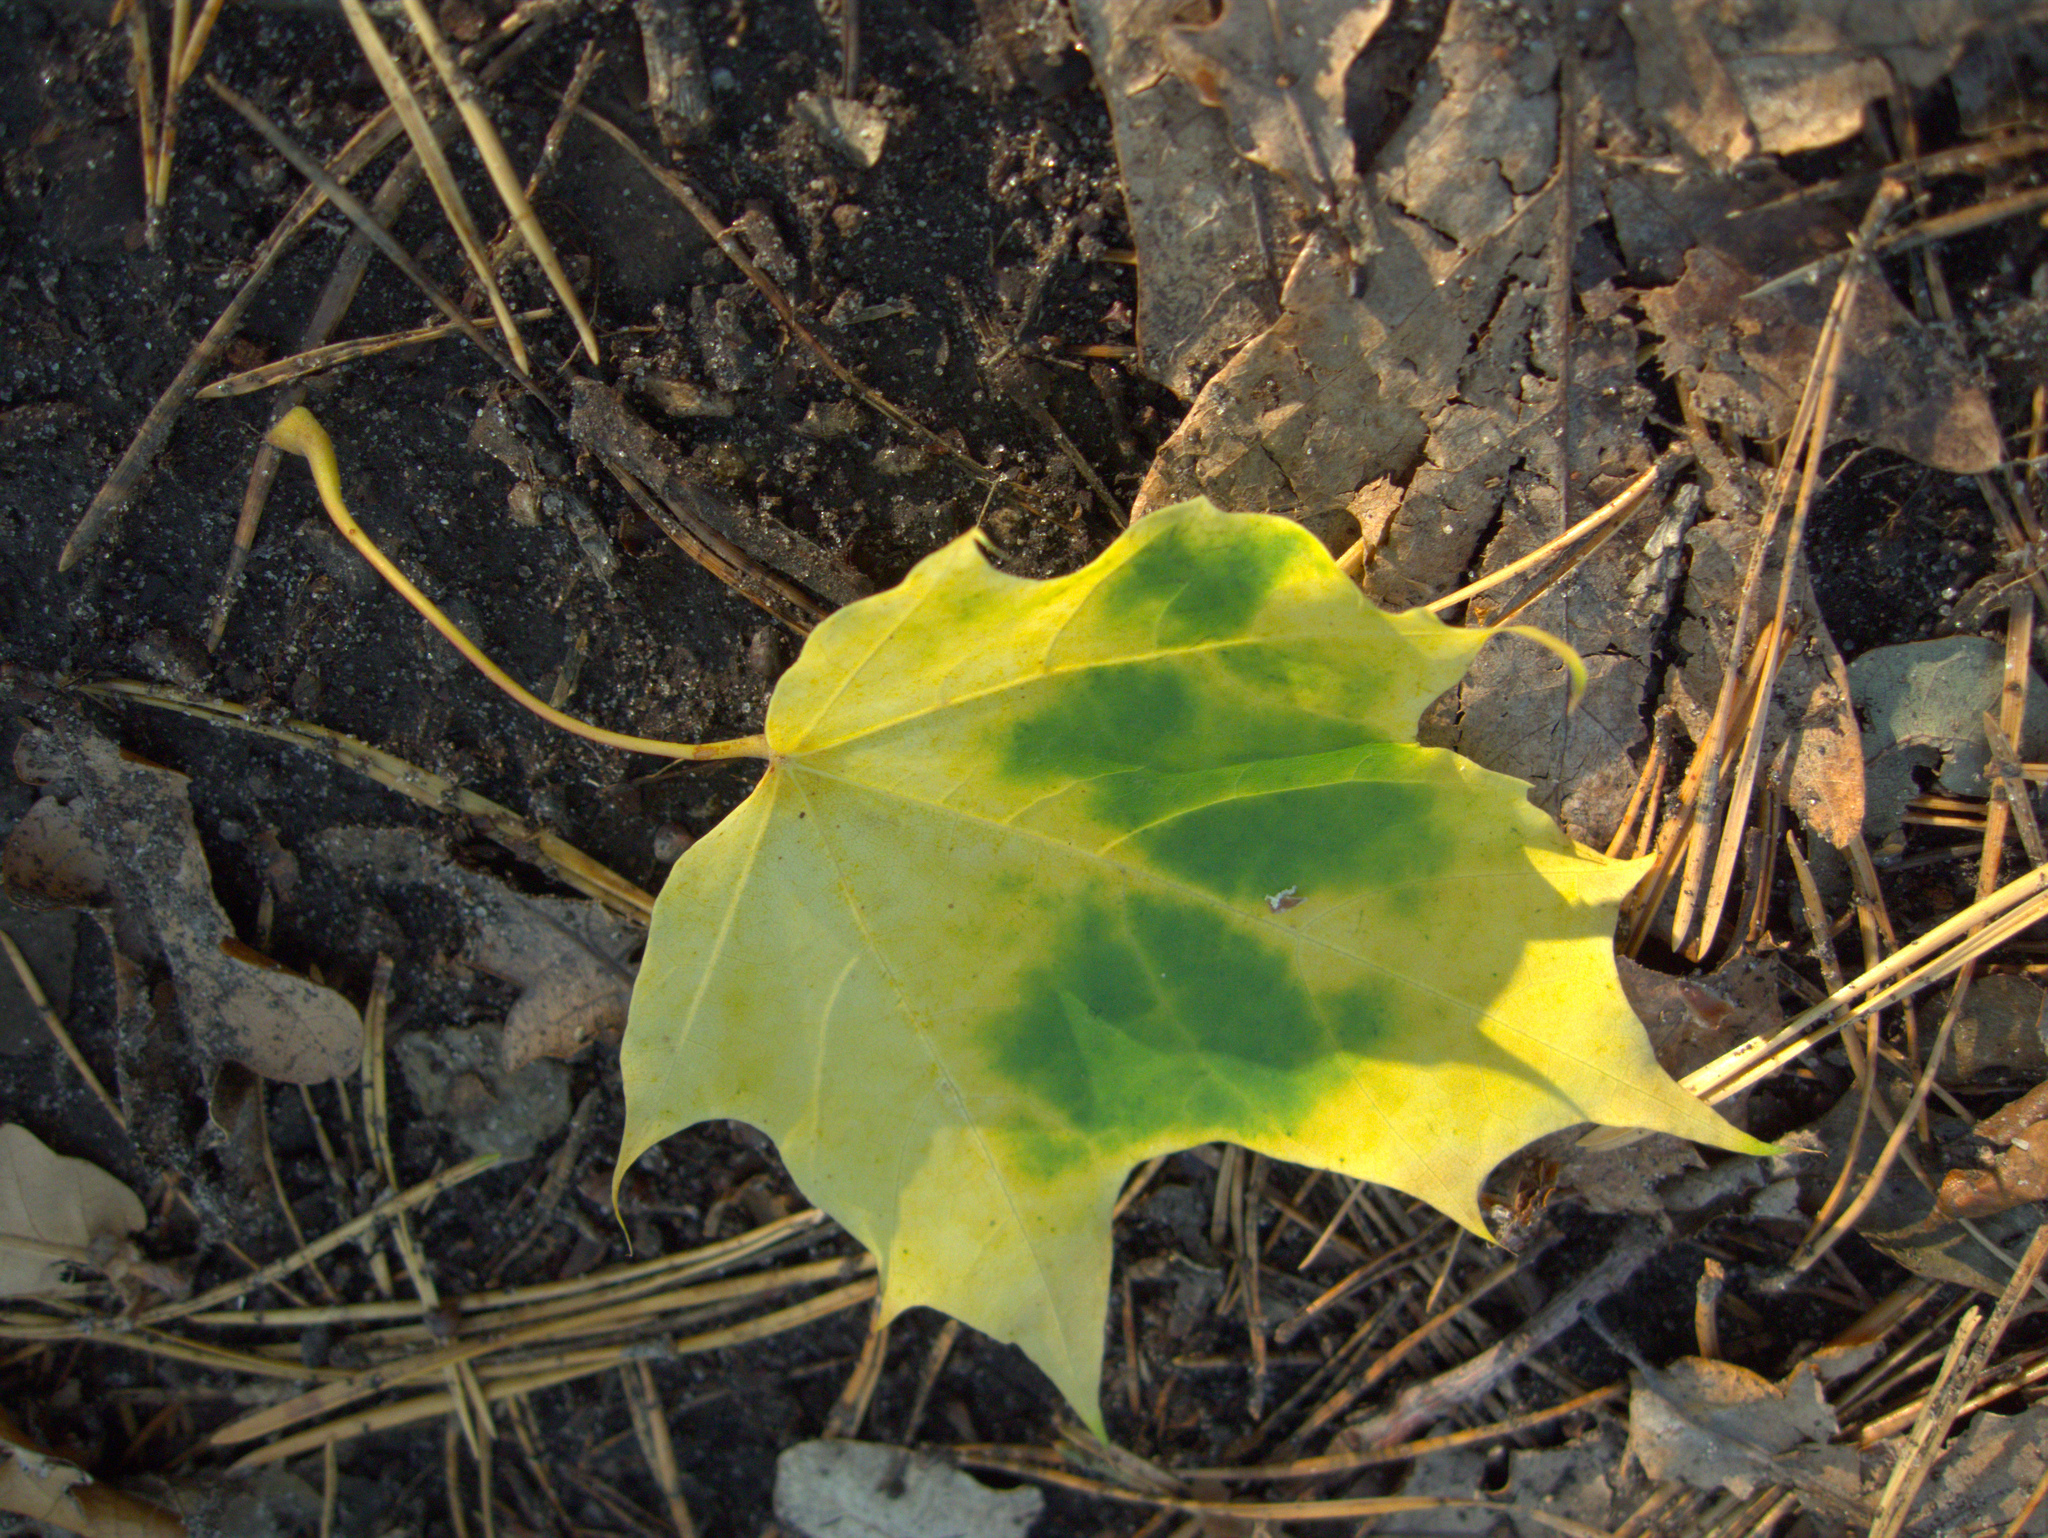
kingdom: Plantae
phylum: Tracheophyta
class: Magnoliopsida
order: Sapindales
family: Sapindaceae
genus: Acer
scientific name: Acer platanoides
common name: Norway maple
